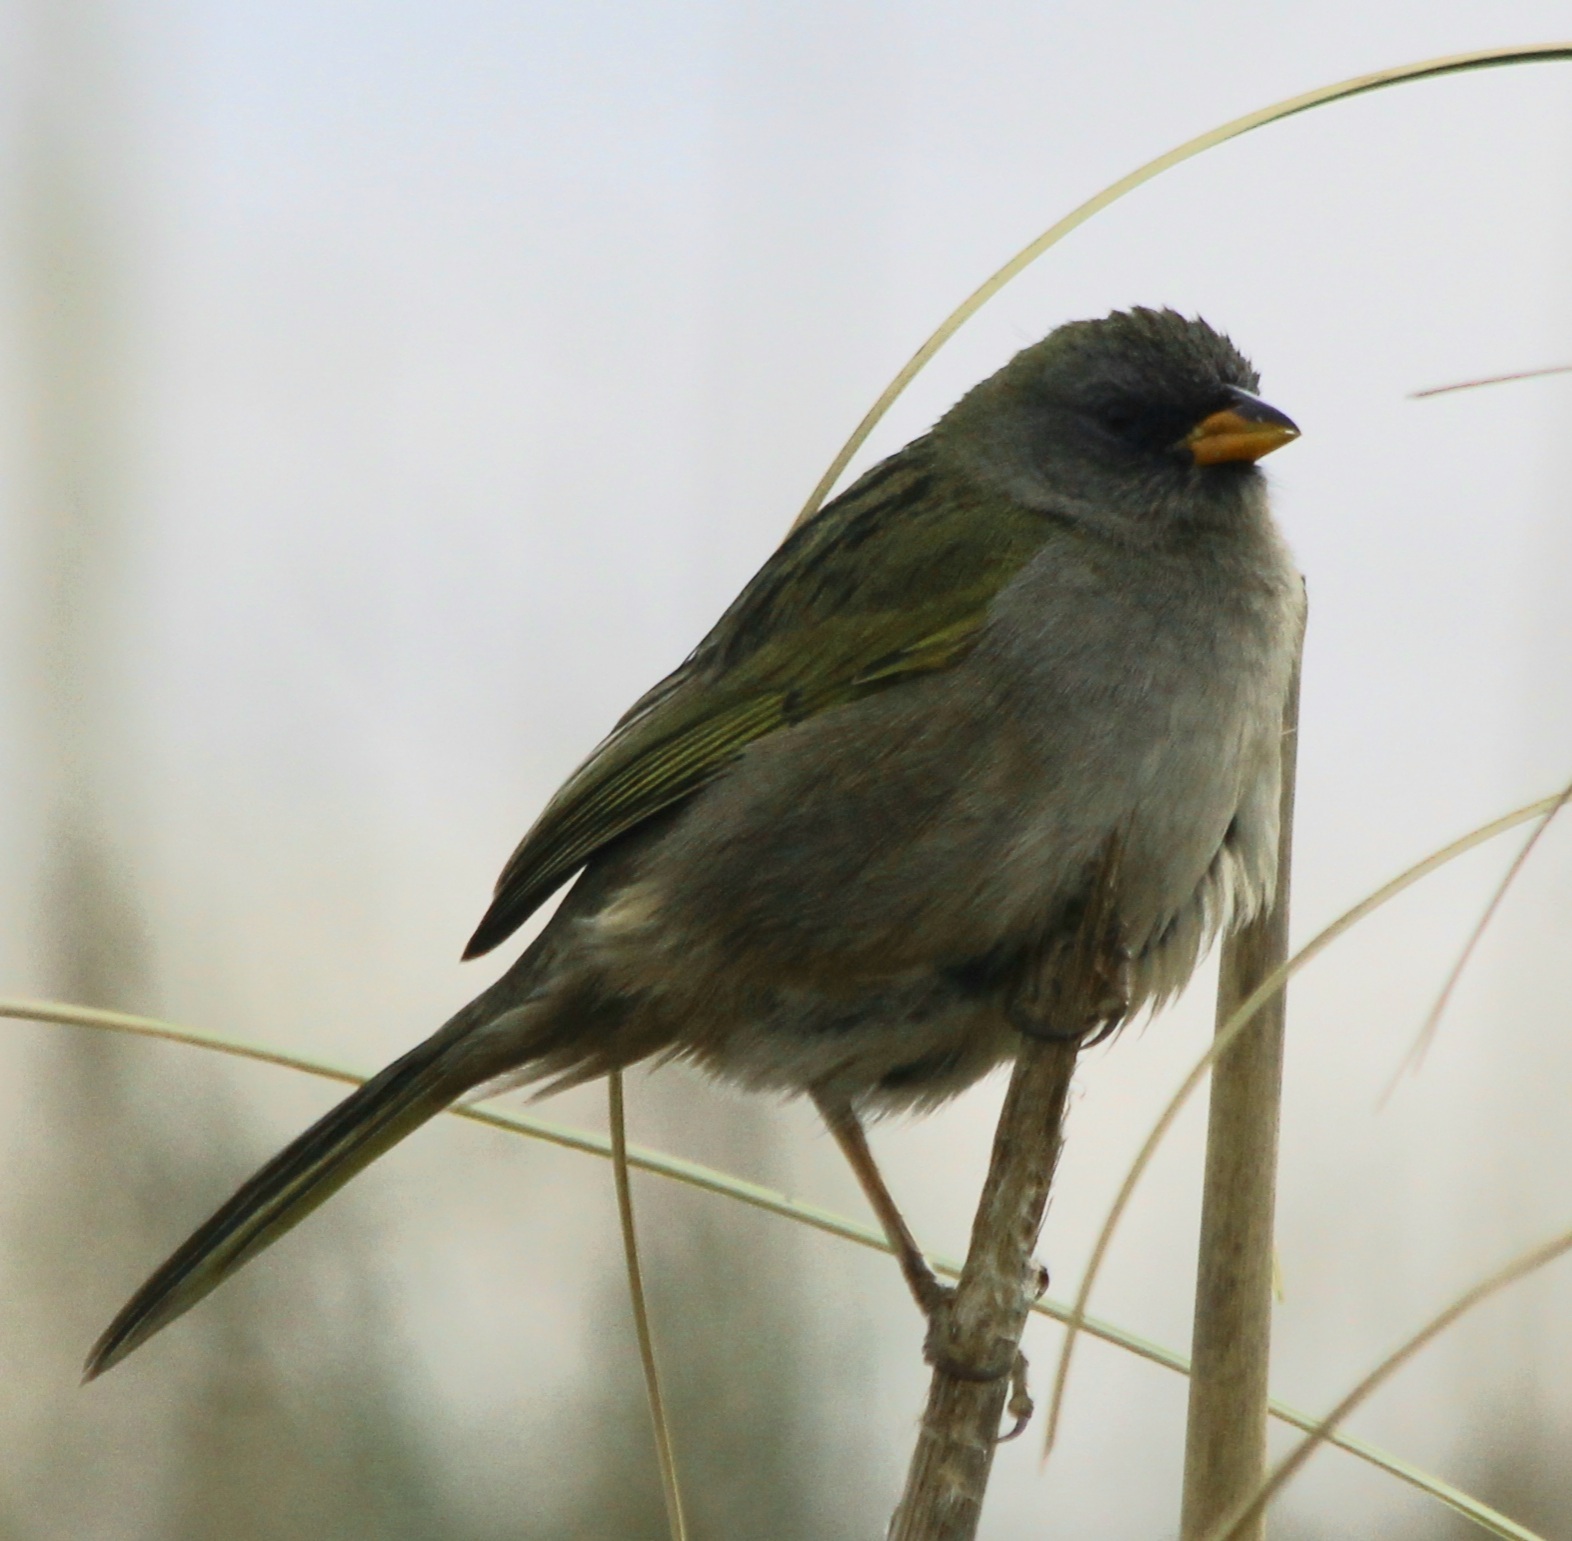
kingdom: Animalia
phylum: Chordata
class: Aves
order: Passeriformes
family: Thraupidae
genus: Embernagra
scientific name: Embernagra platensis
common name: Pampa finch
